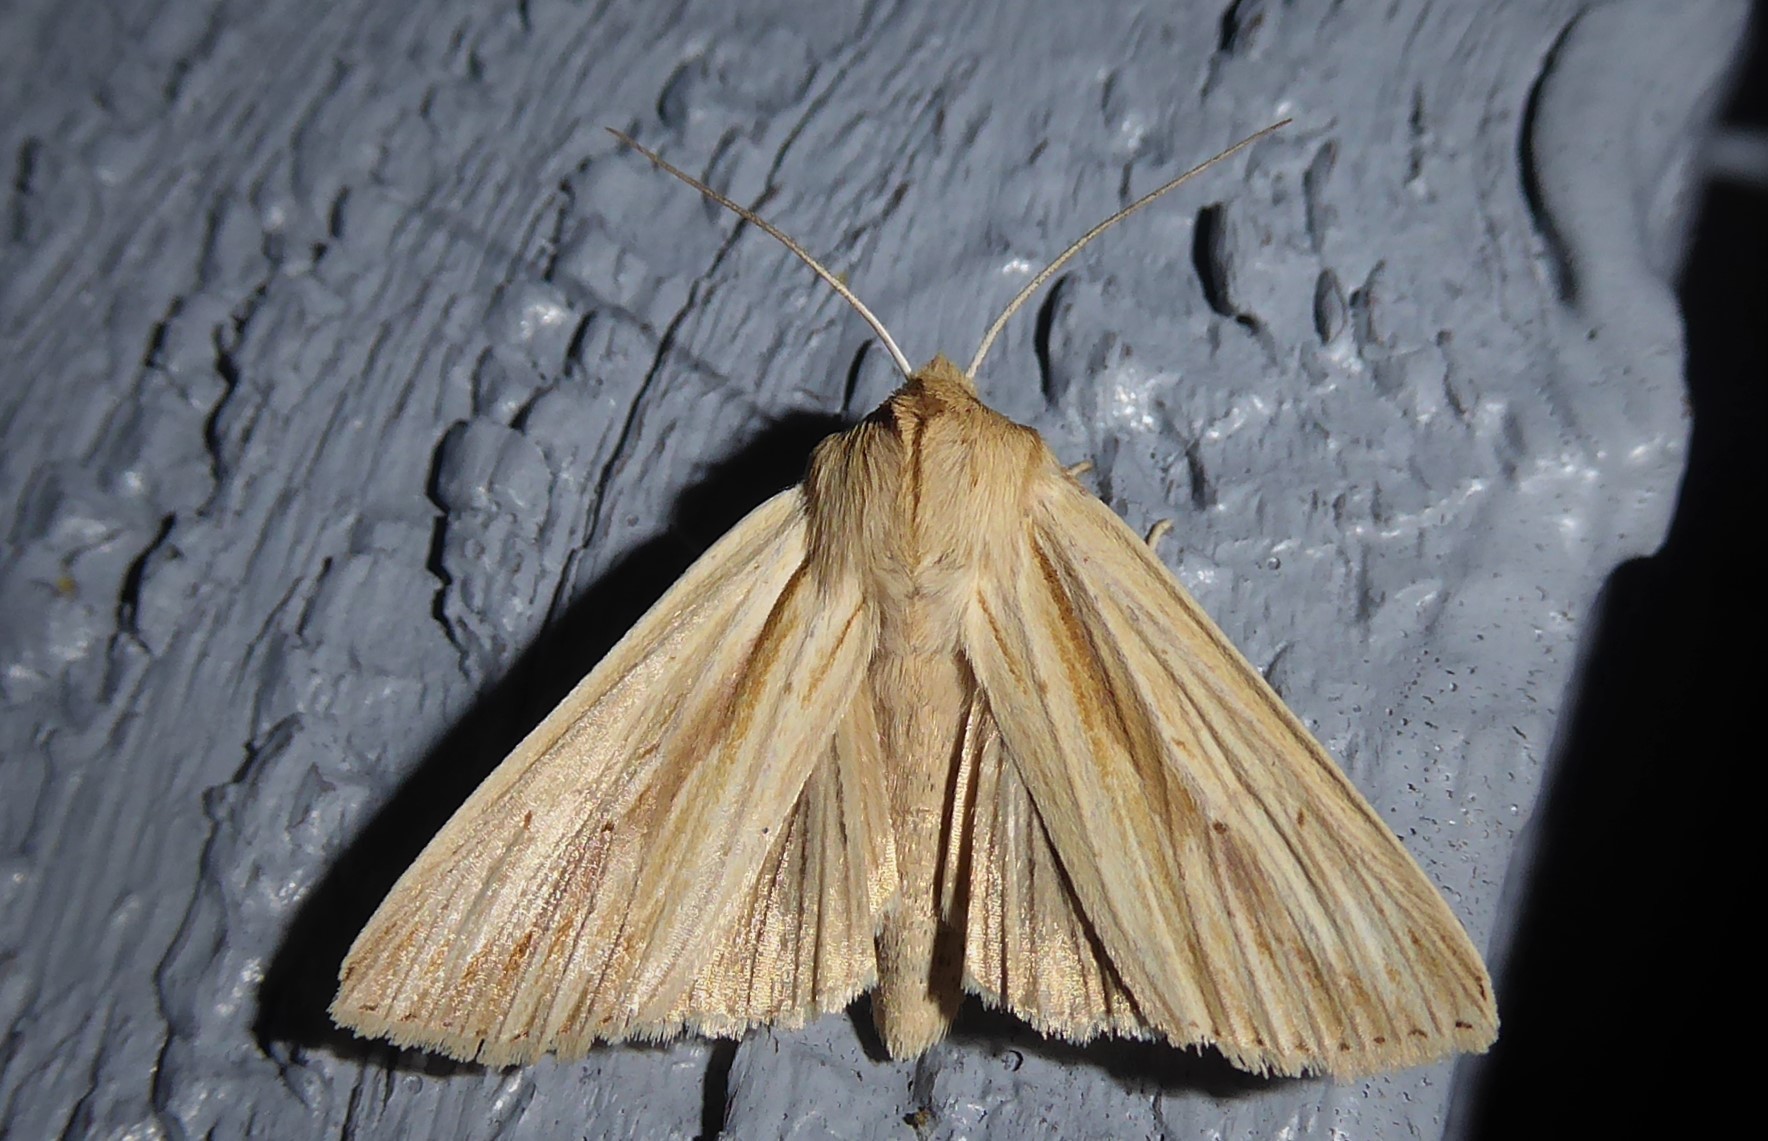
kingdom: Animalia
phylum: Arthropoda
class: Insecta
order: Lepidoptera
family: Noctuidae
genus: Ichneutica
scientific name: Ichneutica semivittata
